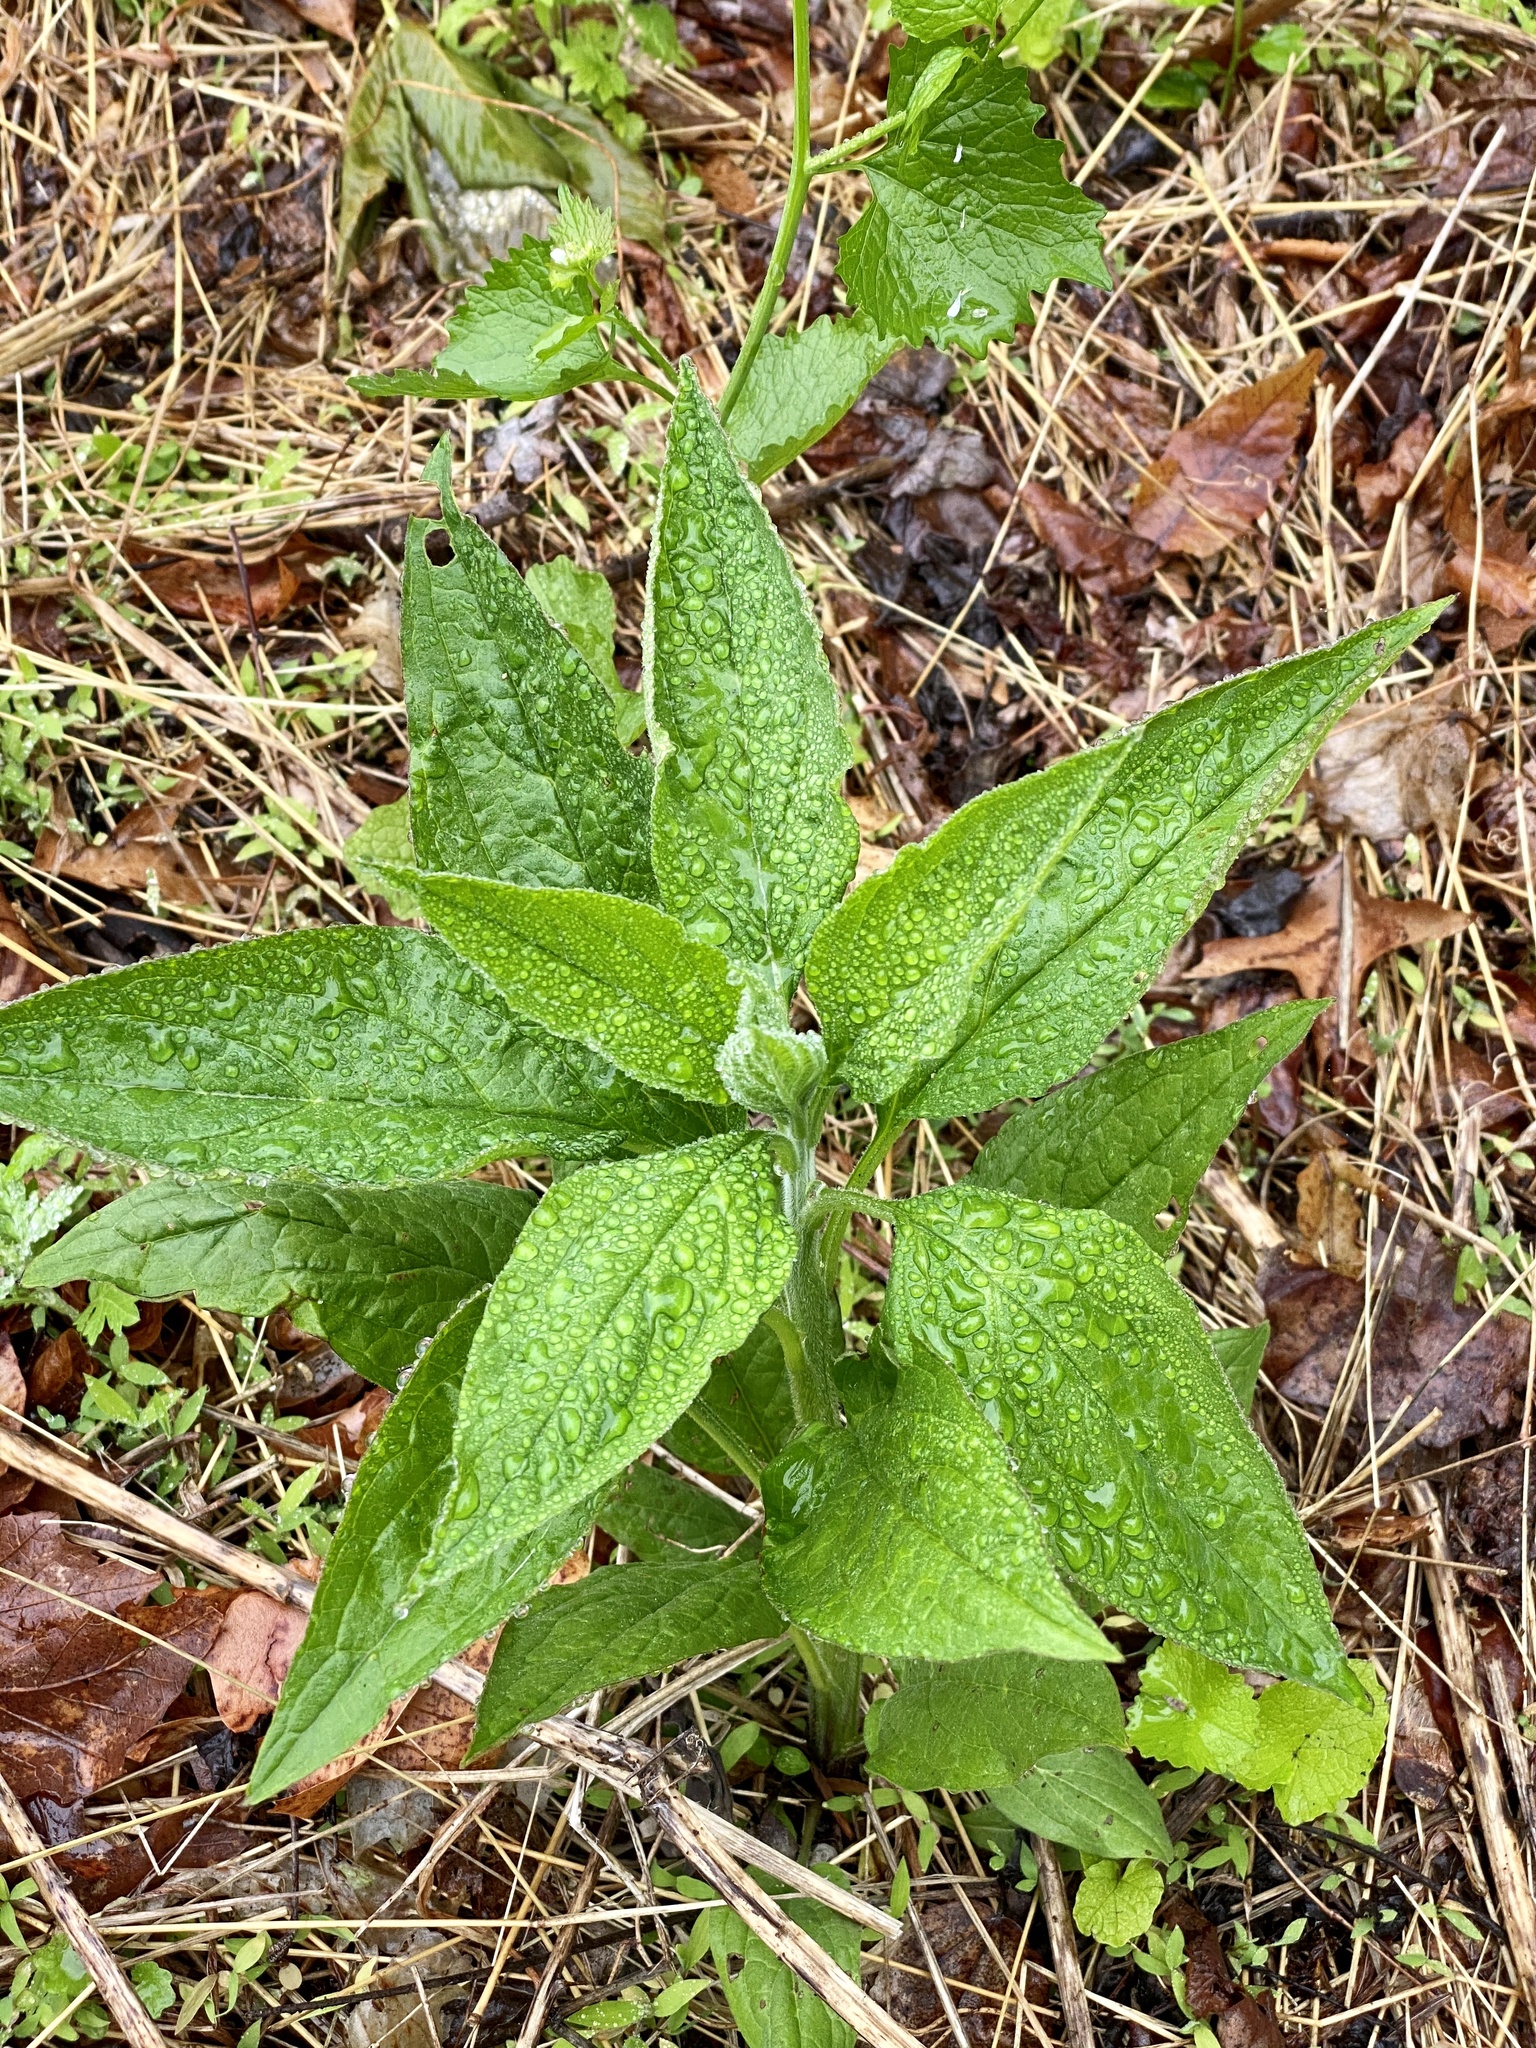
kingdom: Plantae
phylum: Tracheophyta
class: Magnoliopsida
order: Boraginales
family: Boraginaceae
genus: Hackelia
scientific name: Hackelia virginiana
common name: Beggar's-lice
